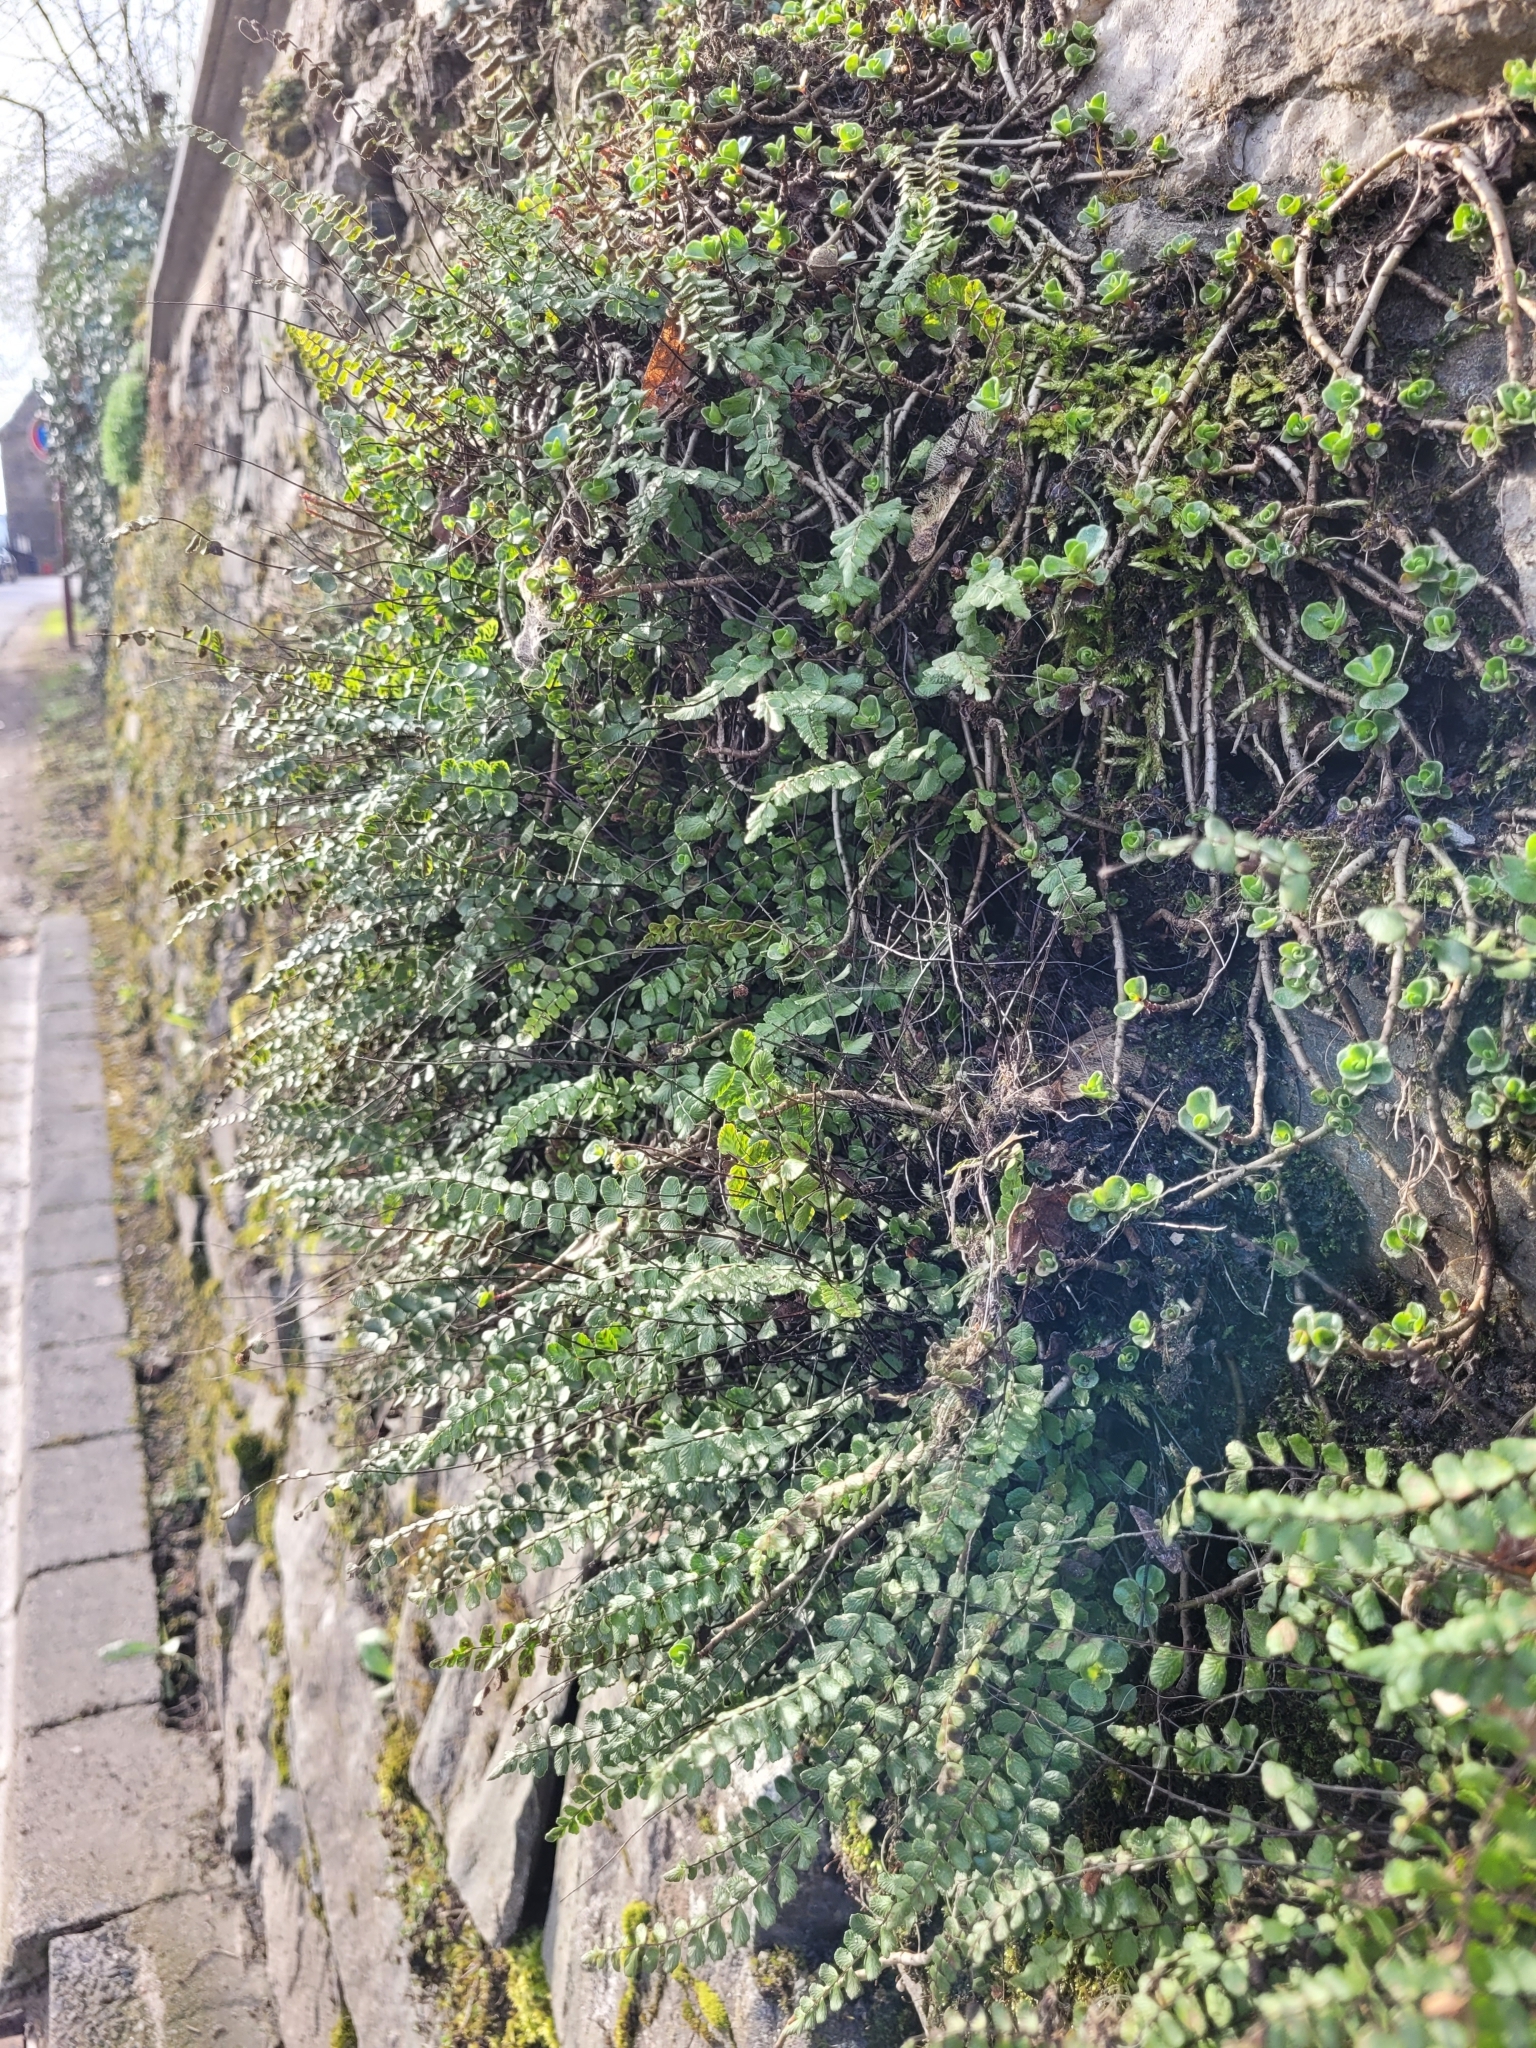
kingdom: Plantae
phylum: Tracheophyta
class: Polypodiopsida
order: Polypodiales
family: Aspleniaceae
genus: Asplenium
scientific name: Asplenium trichomanes
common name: Maidenhair spleenwort
